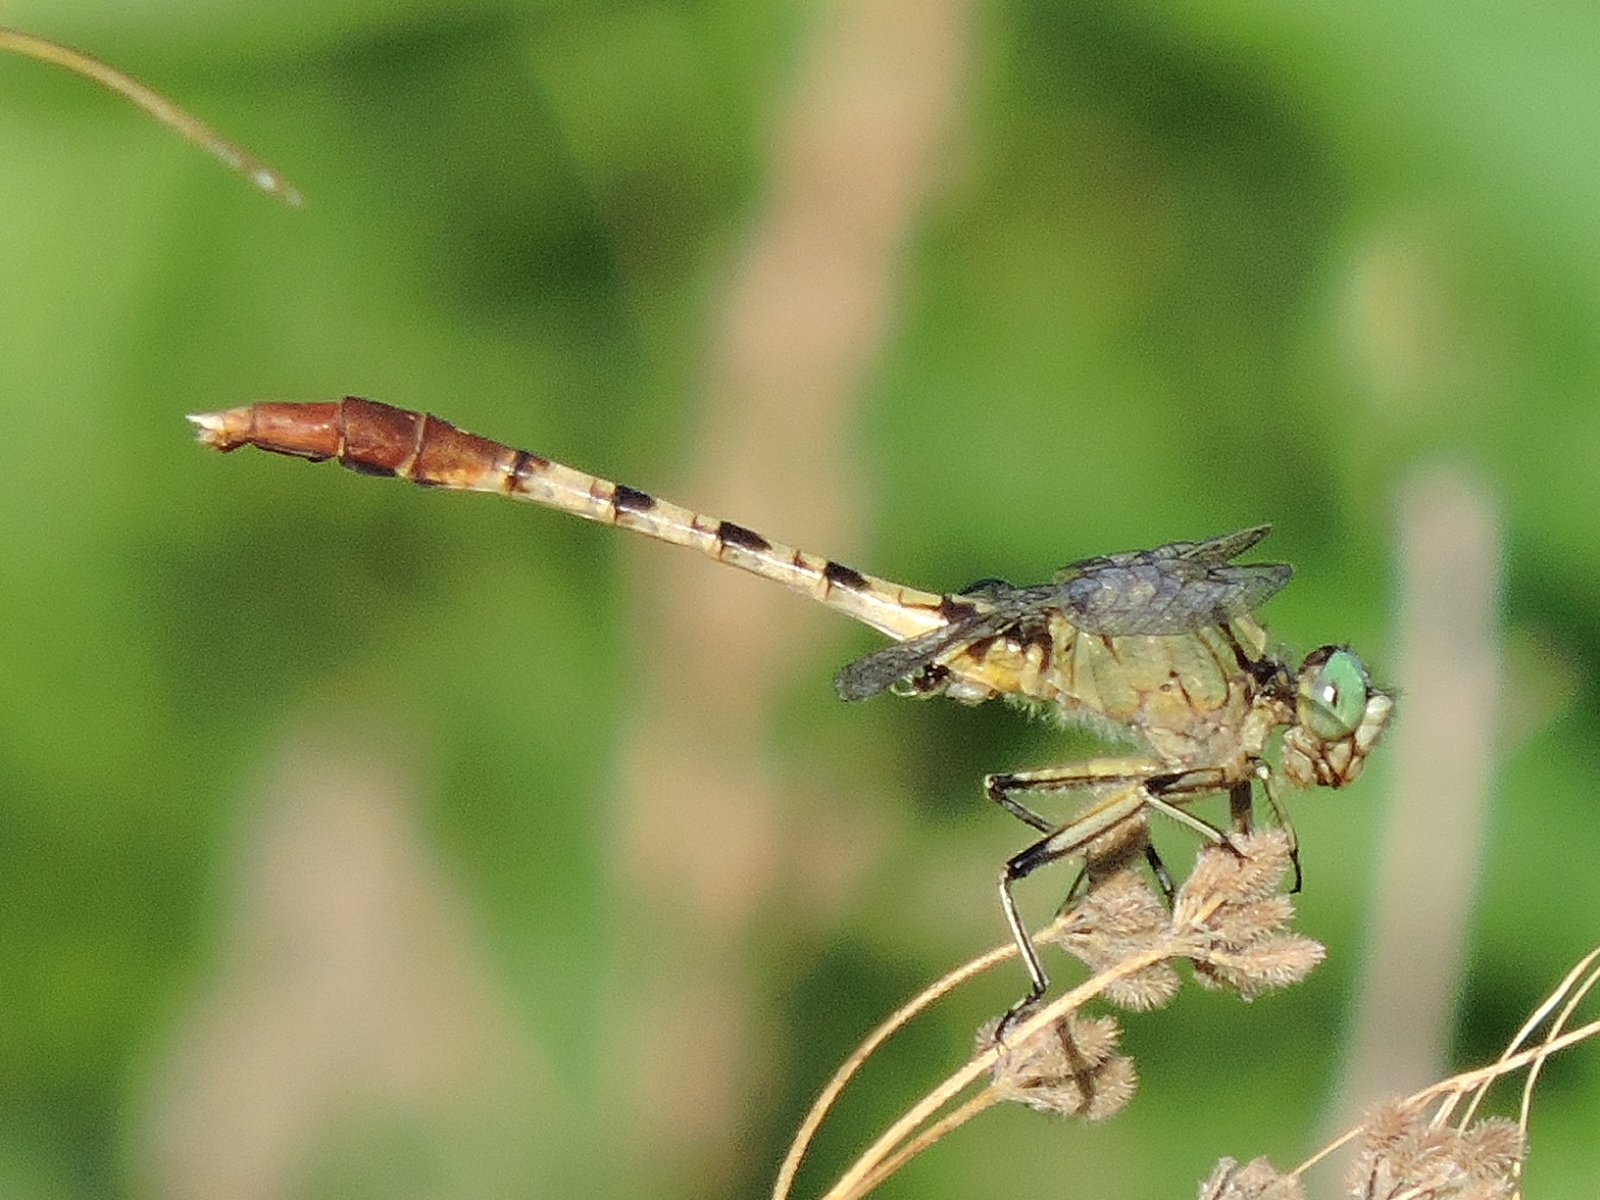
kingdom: Animalia
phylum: Arthropoda
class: Insecta
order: Odonata
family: Gomphidae
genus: Arigomphus
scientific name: Arigomphus submedianus
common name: Jade clubtail
